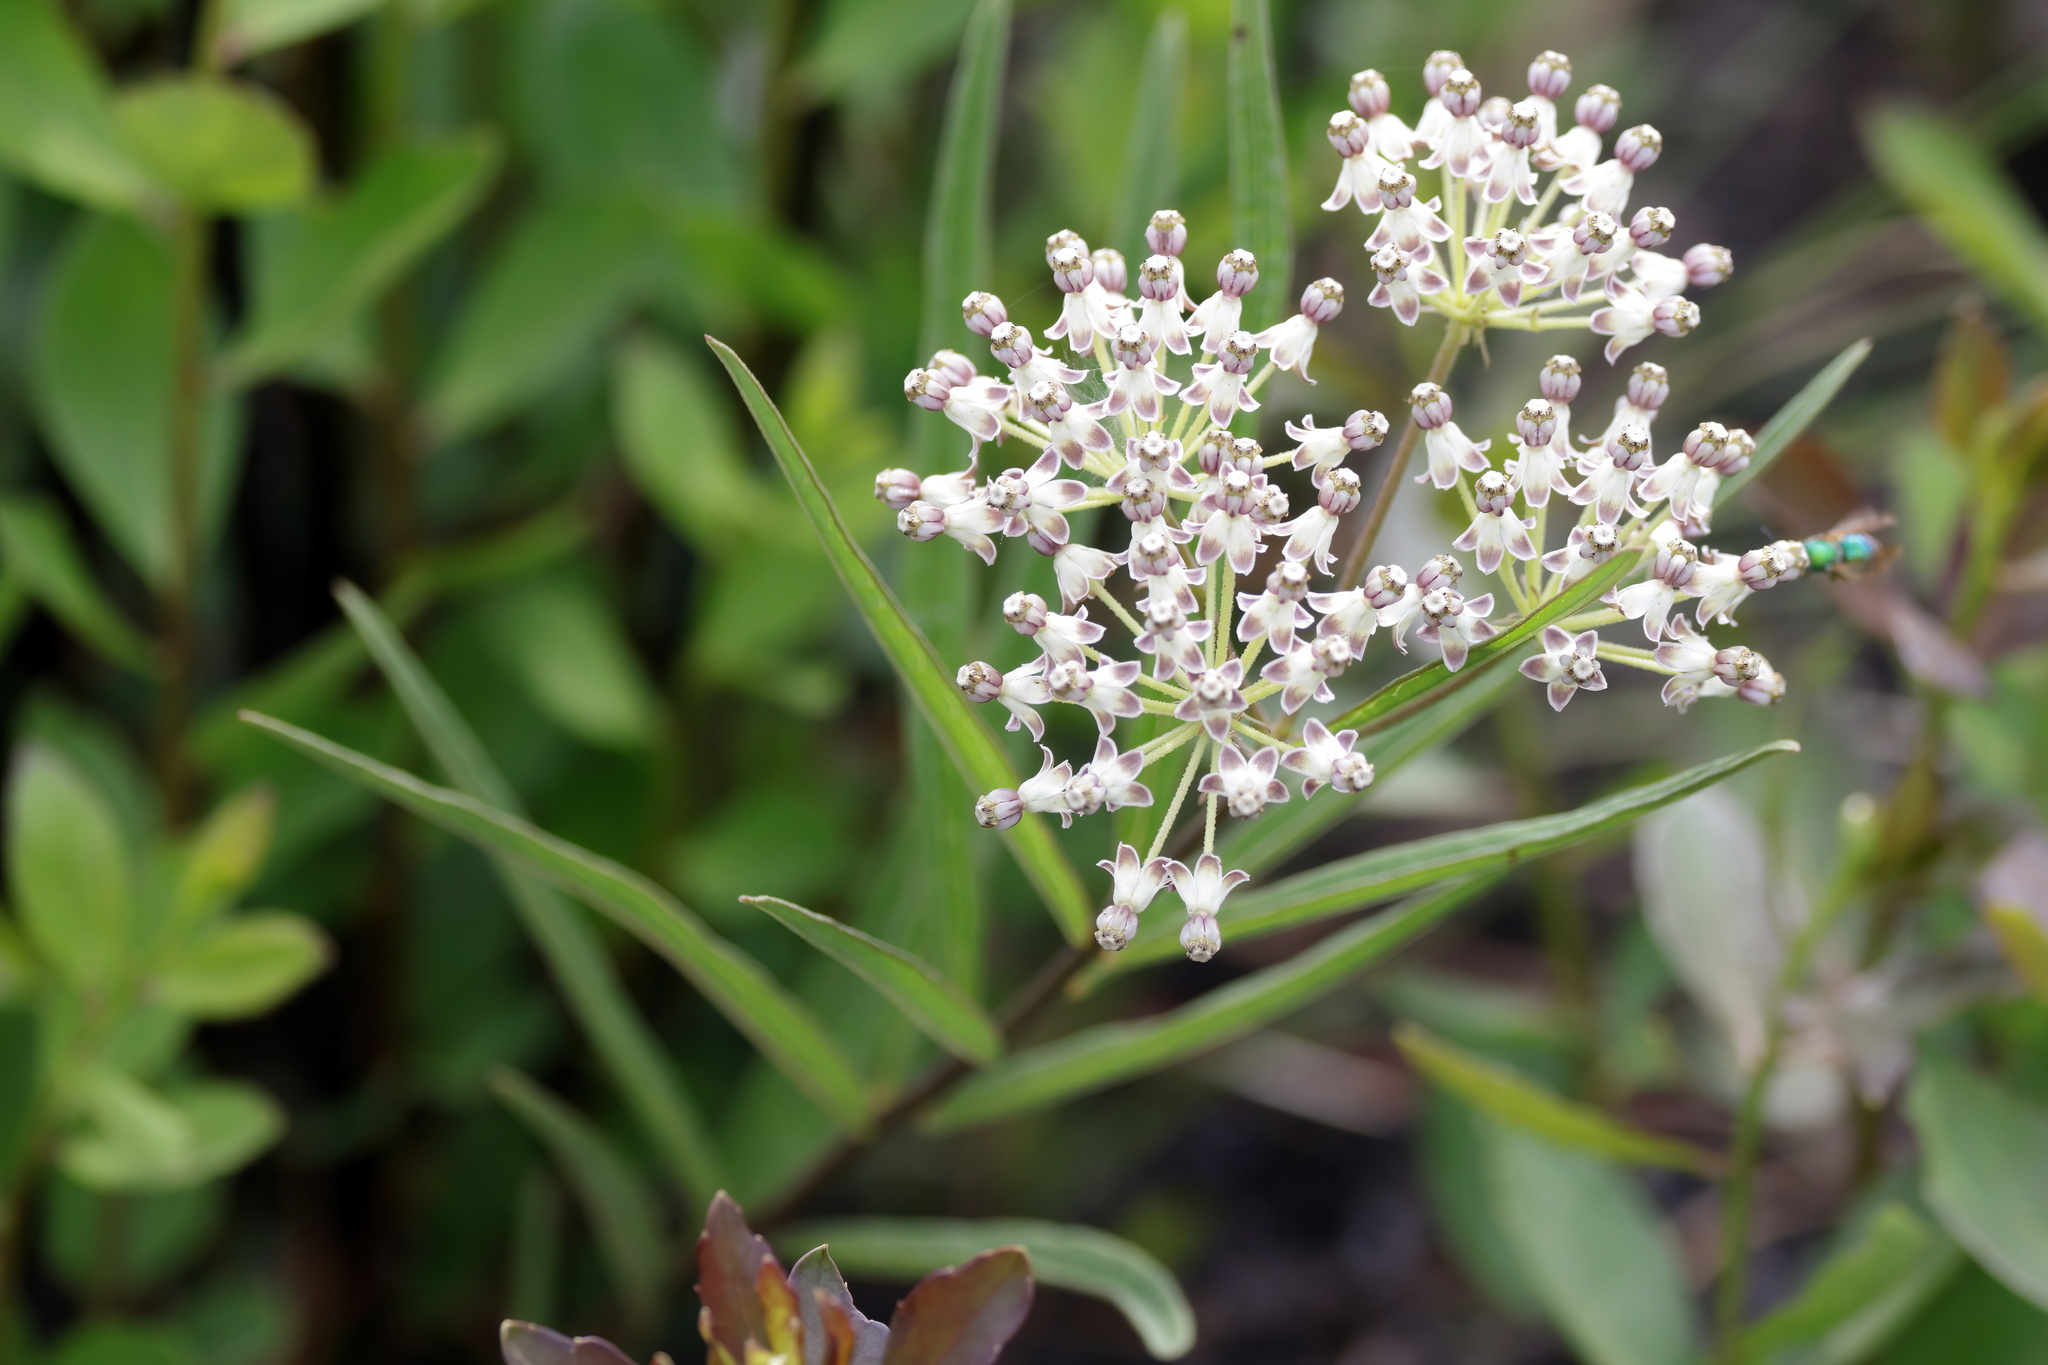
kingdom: Plantae
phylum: Tracheophyta
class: Magnoliopsida
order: Gentianales
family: Apocynaceae
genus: Asclepias
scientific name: Asclepias longifolia
